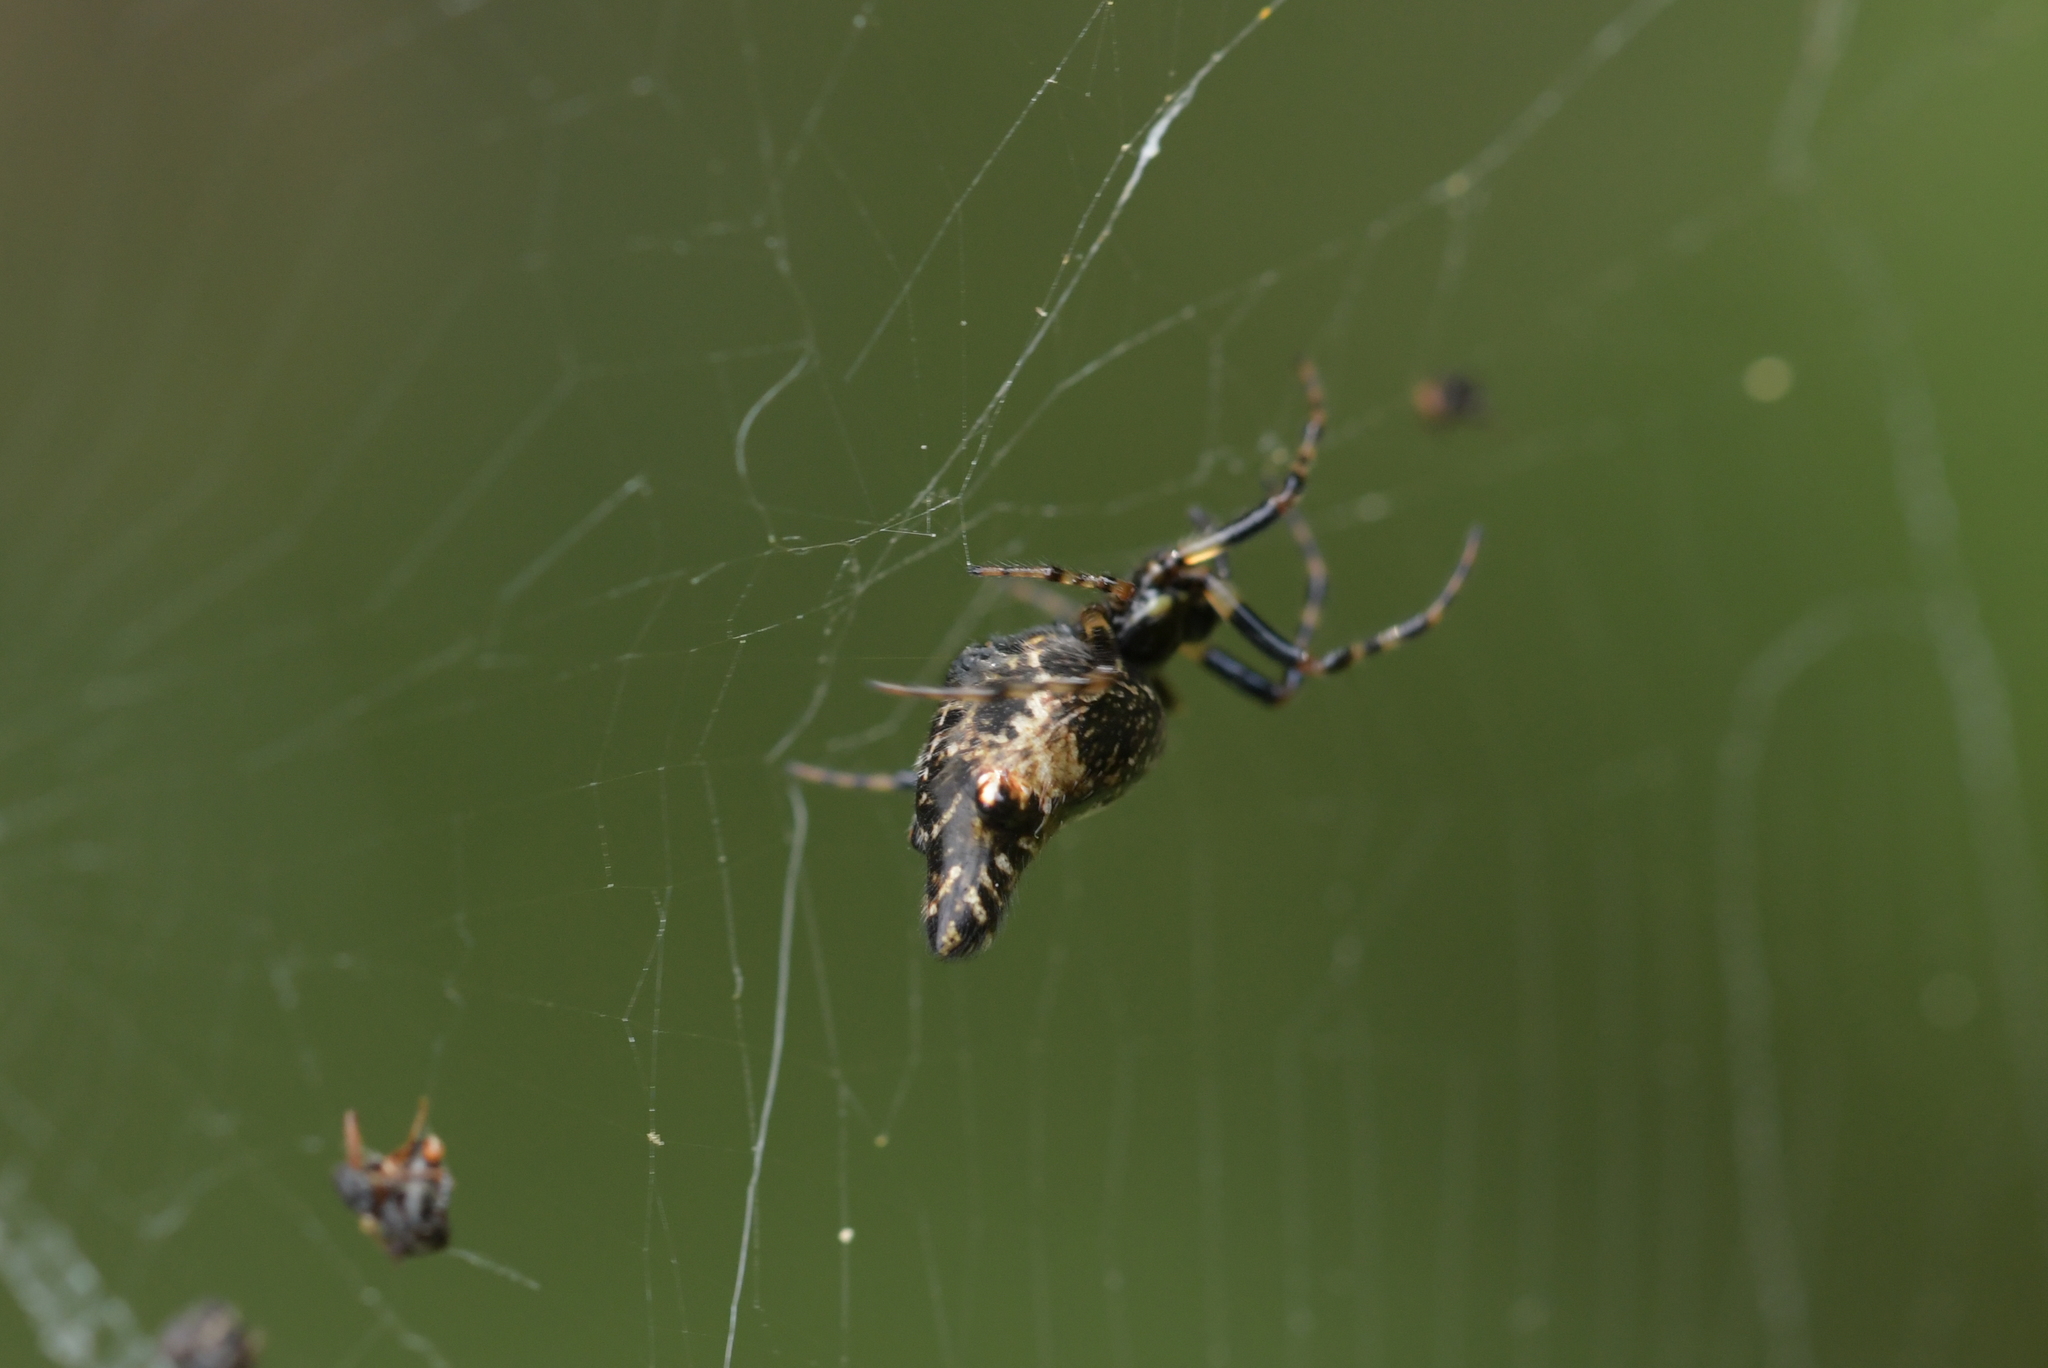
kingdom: Animalia
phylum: Arthropoda
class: Arachnida
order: Araneae
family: Araneidae
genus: Cyclosa
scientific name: Cyclosa trilobata
